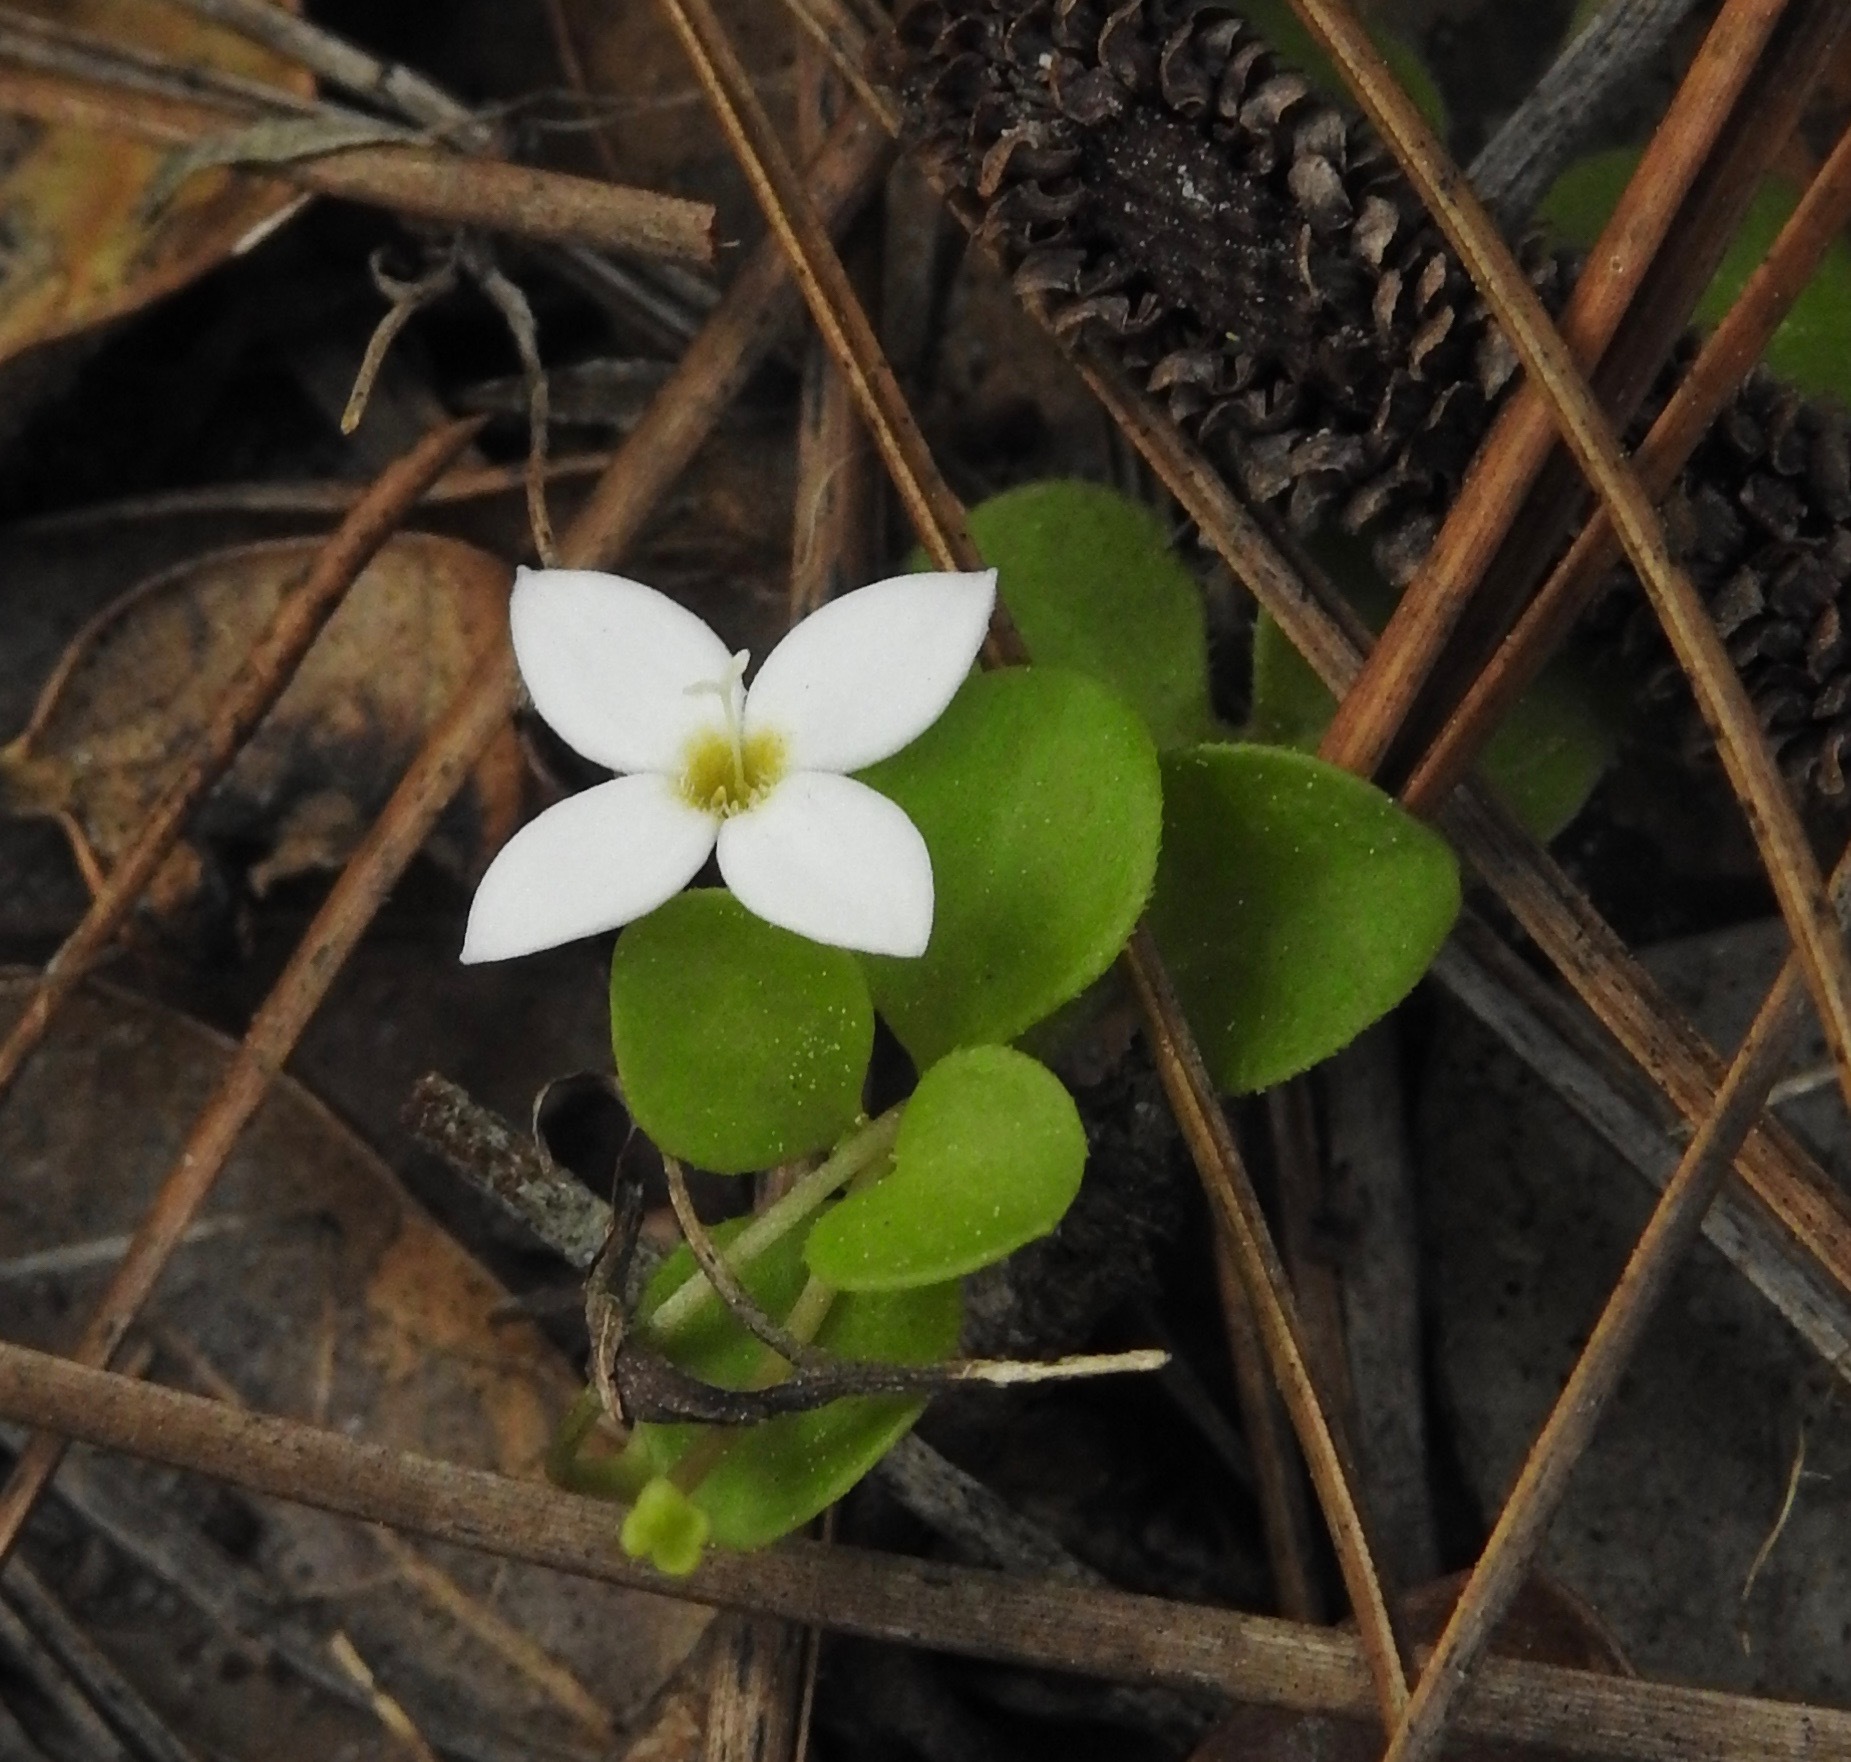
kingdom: Plantae
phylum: Tracheophyta
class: Magnoliopsida
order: Gentianales
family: Rubiaceae
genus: Houstonia
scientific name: Houstonia procumbens
